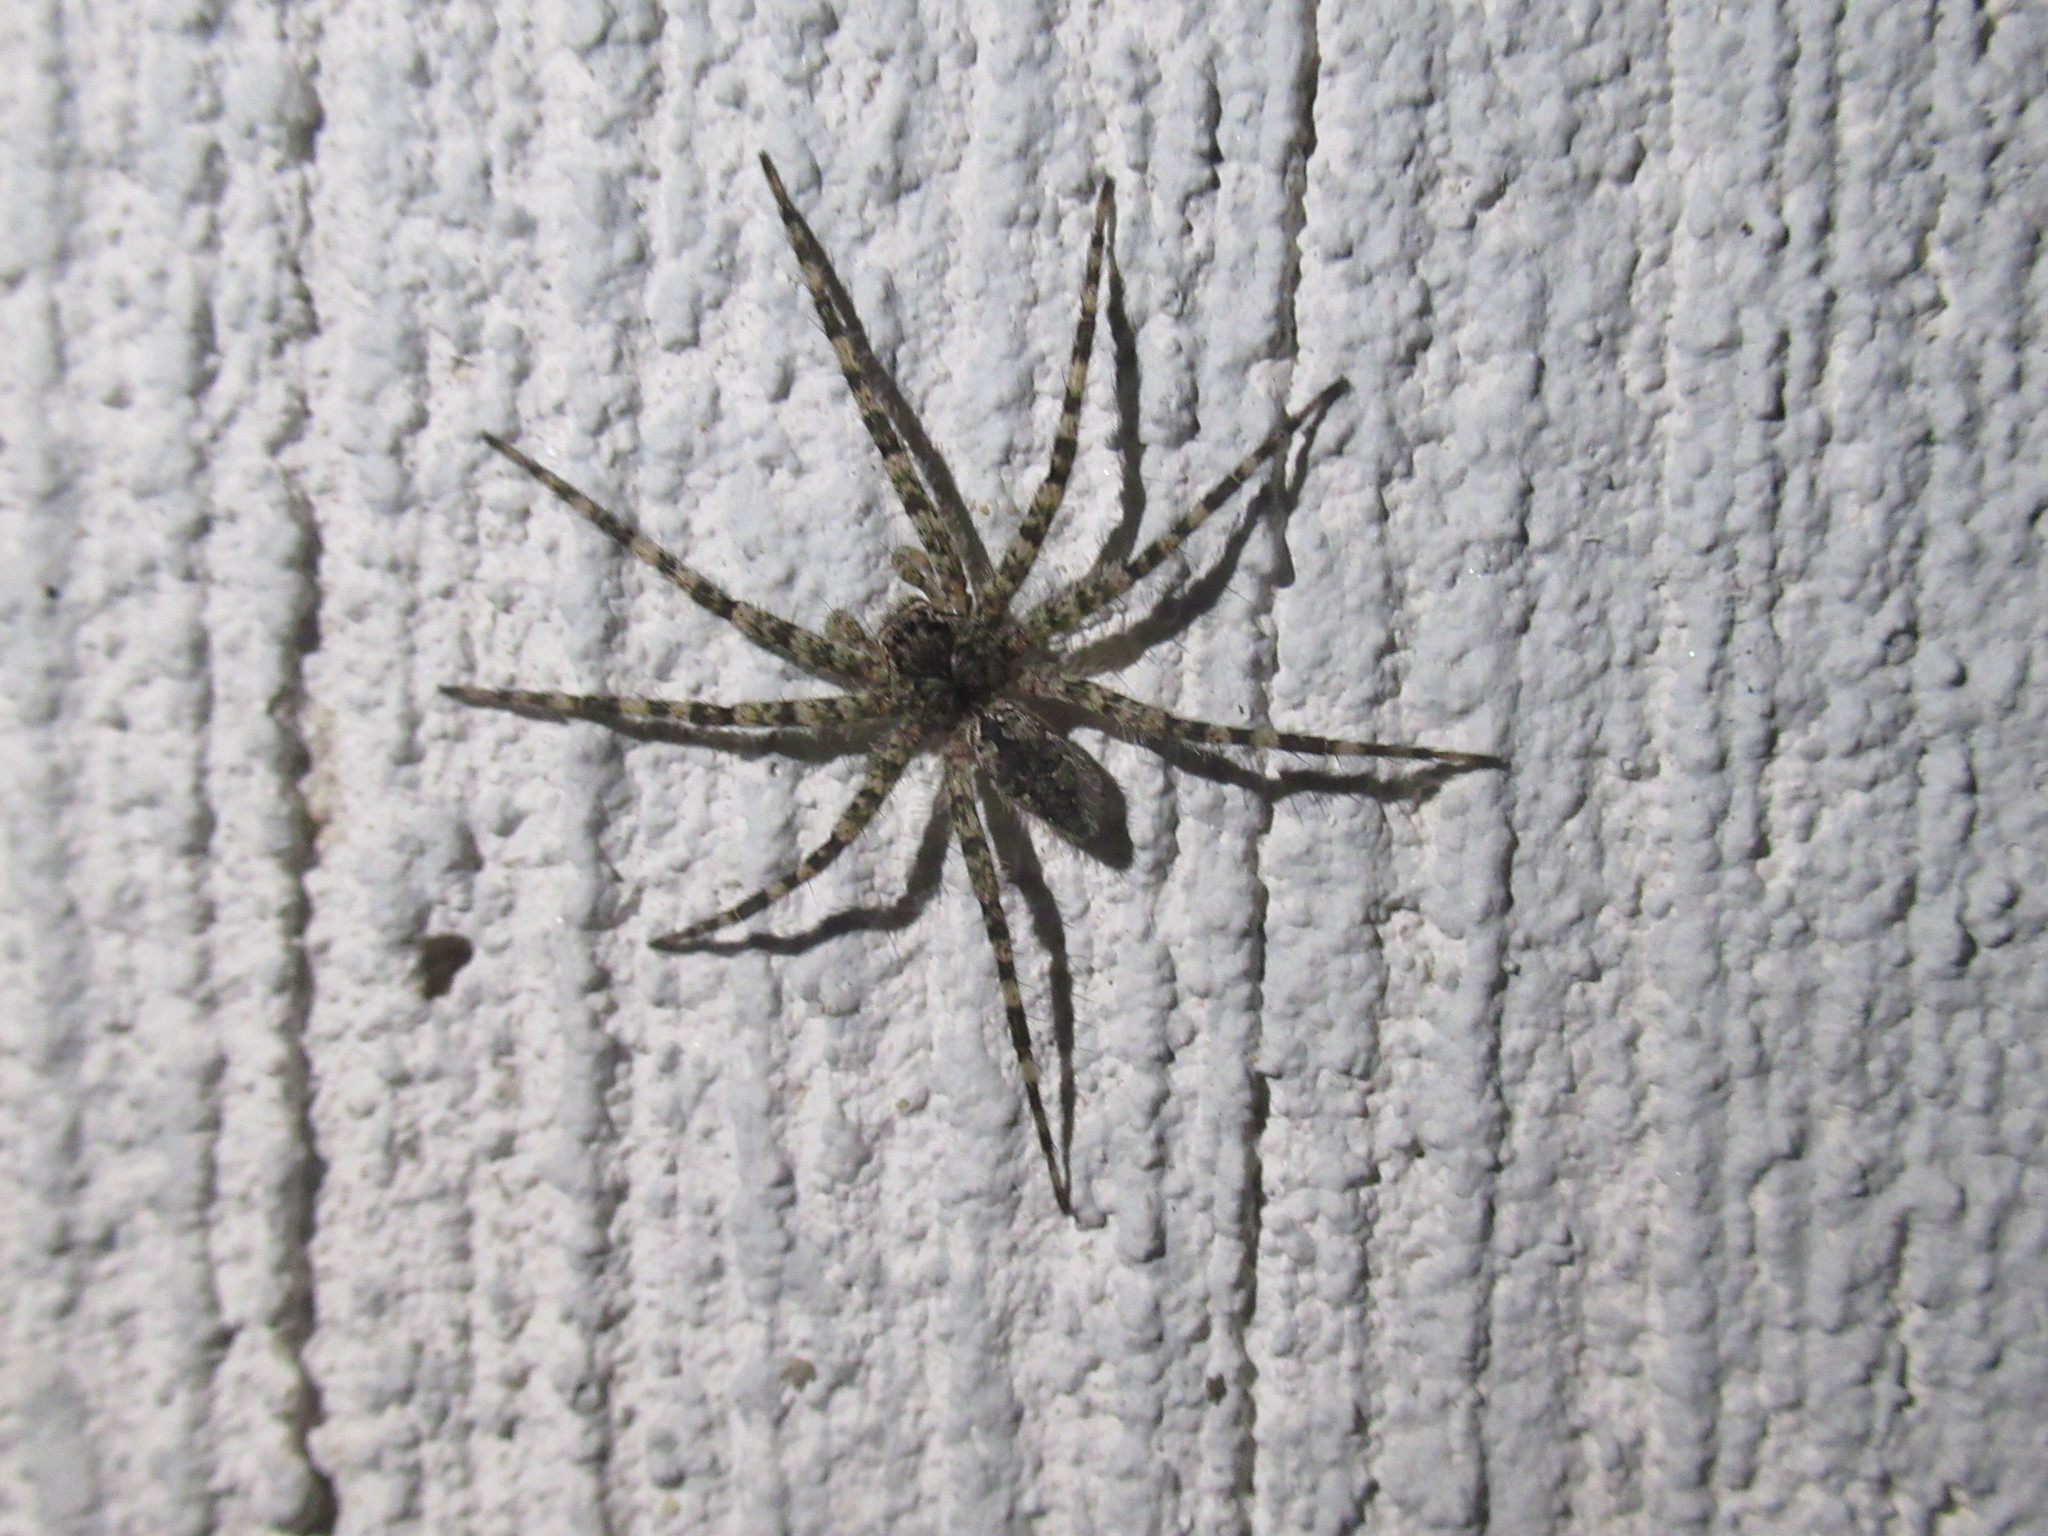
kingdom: Animalia
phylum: Arthropoda
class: Arachnida
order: Araneae
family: Pisauridae
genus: Dolomedes
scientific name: Dolomedes albineus
